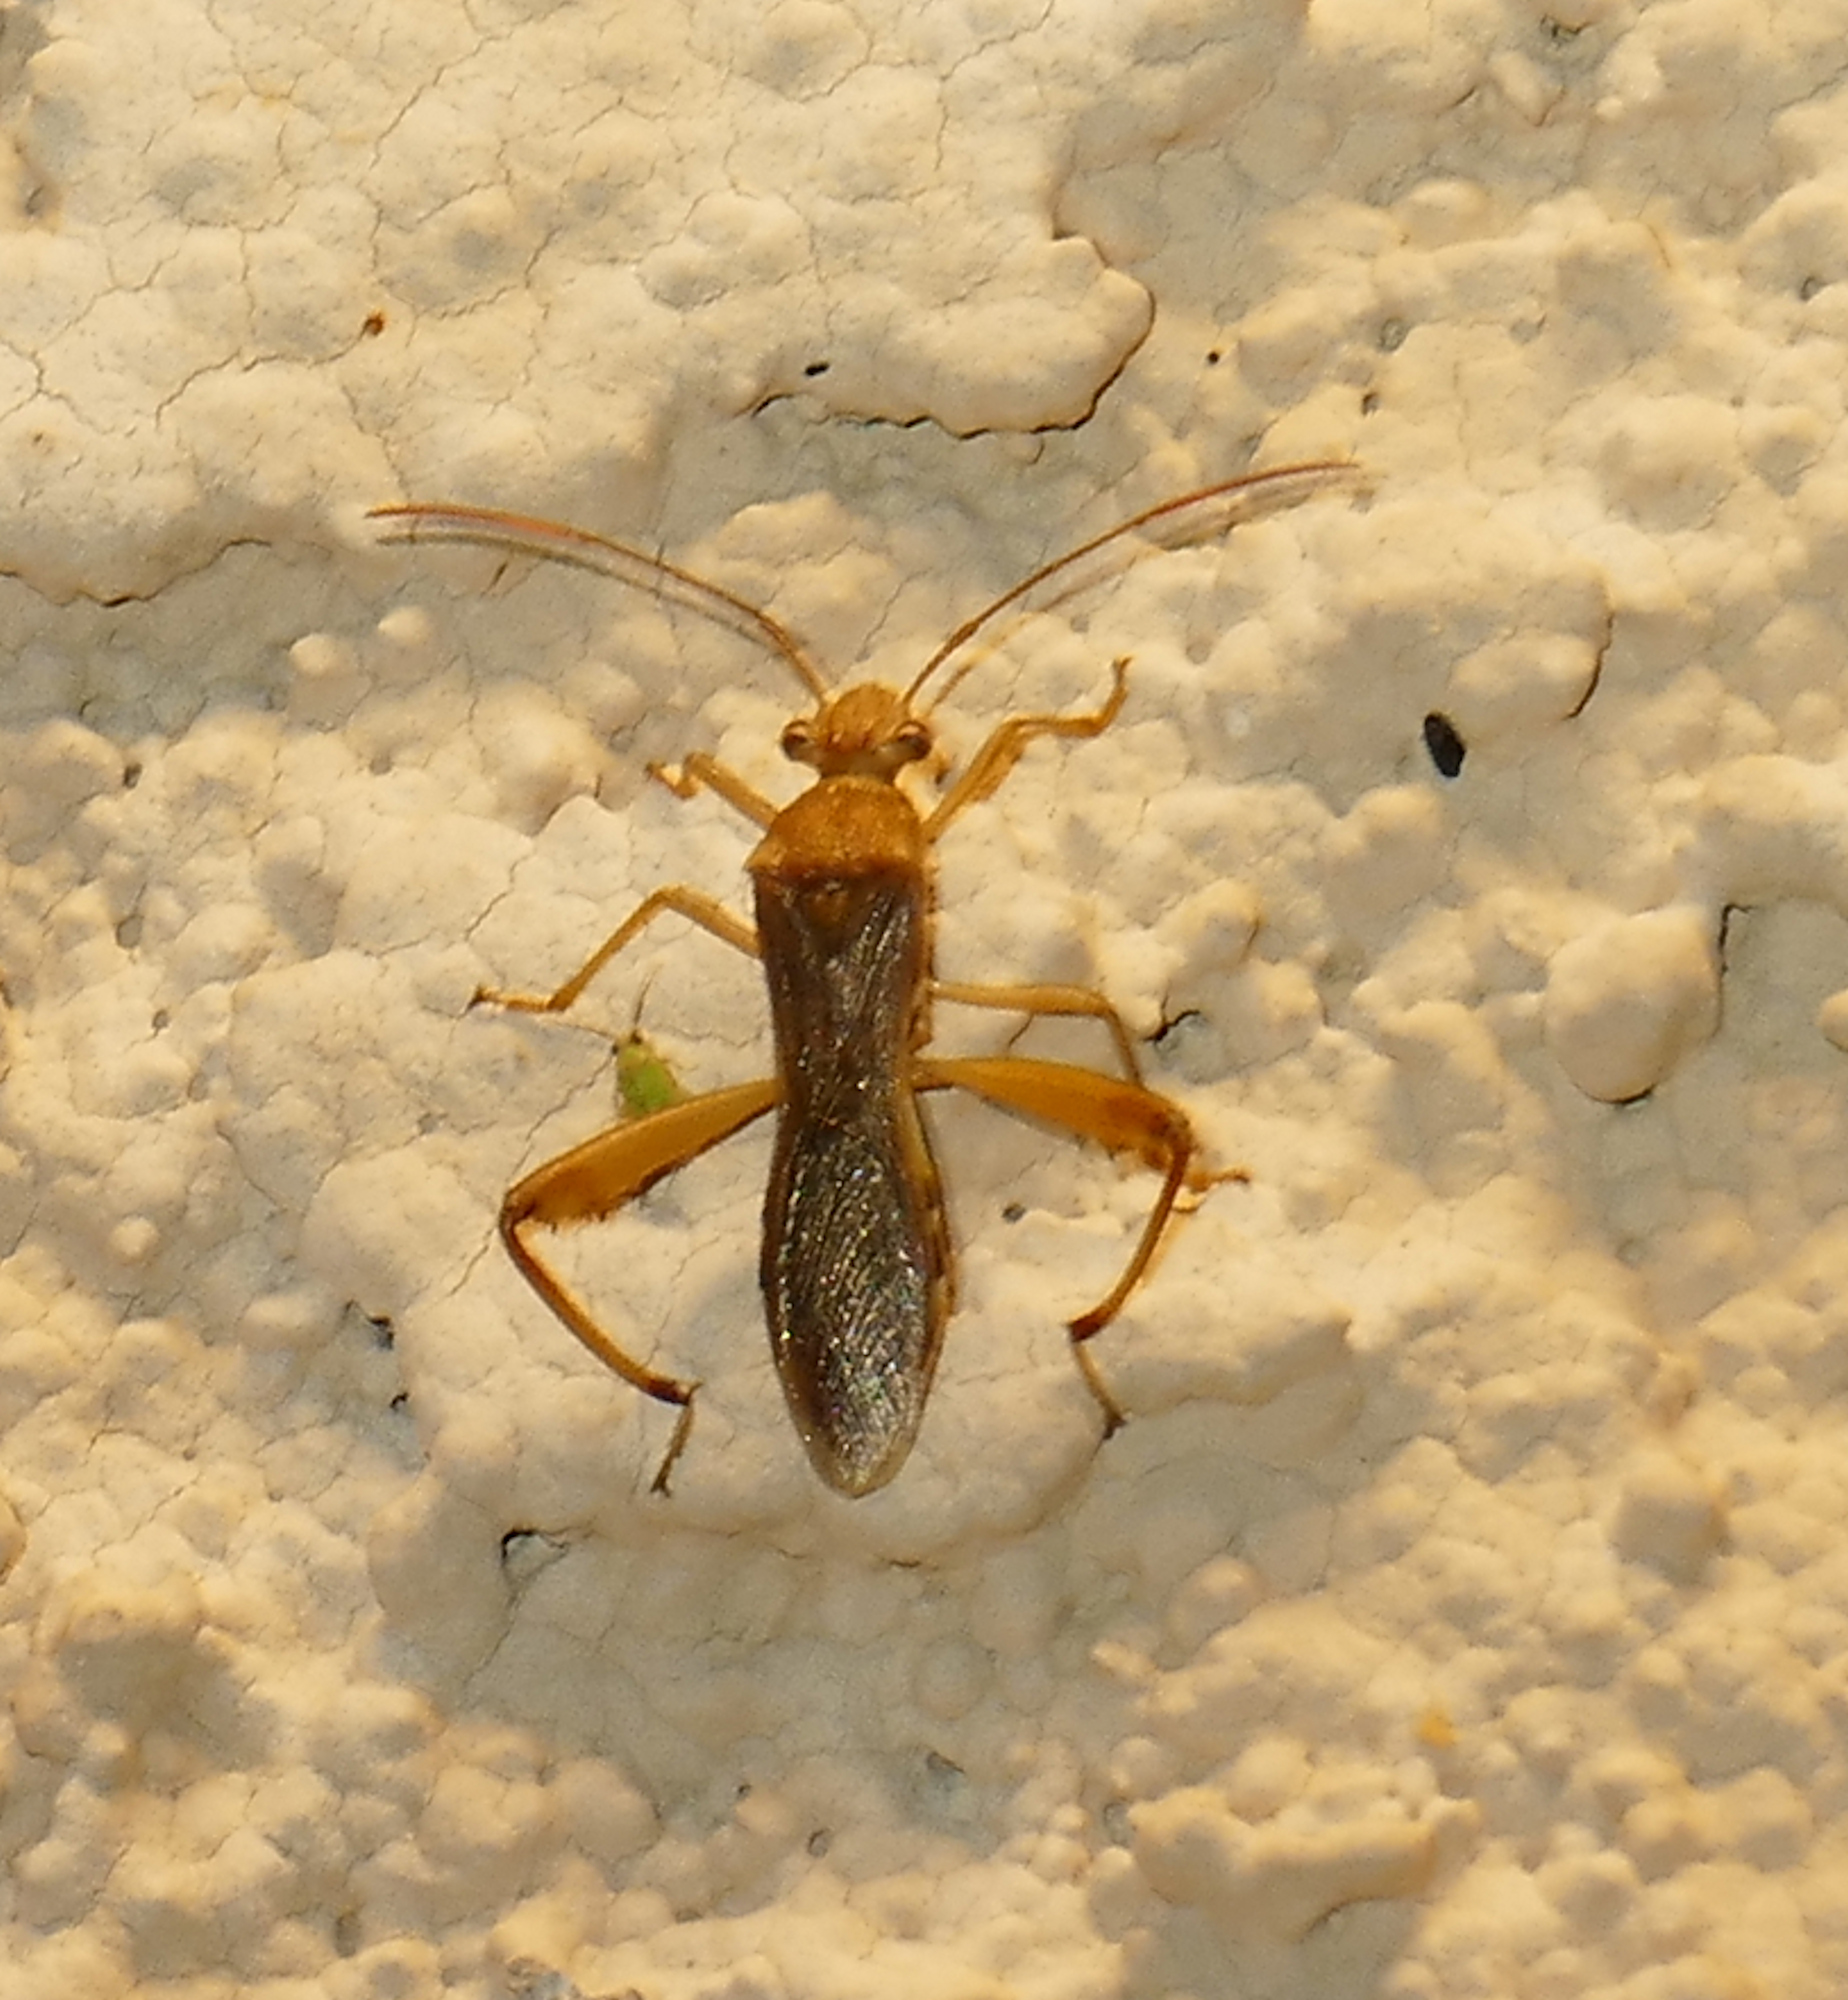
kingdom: Animalia
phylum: Arthropoda
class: Insecta
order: Hemiptera
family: Alydidae
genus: Hyalymenus
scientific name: Hyalymenus tarsatus
